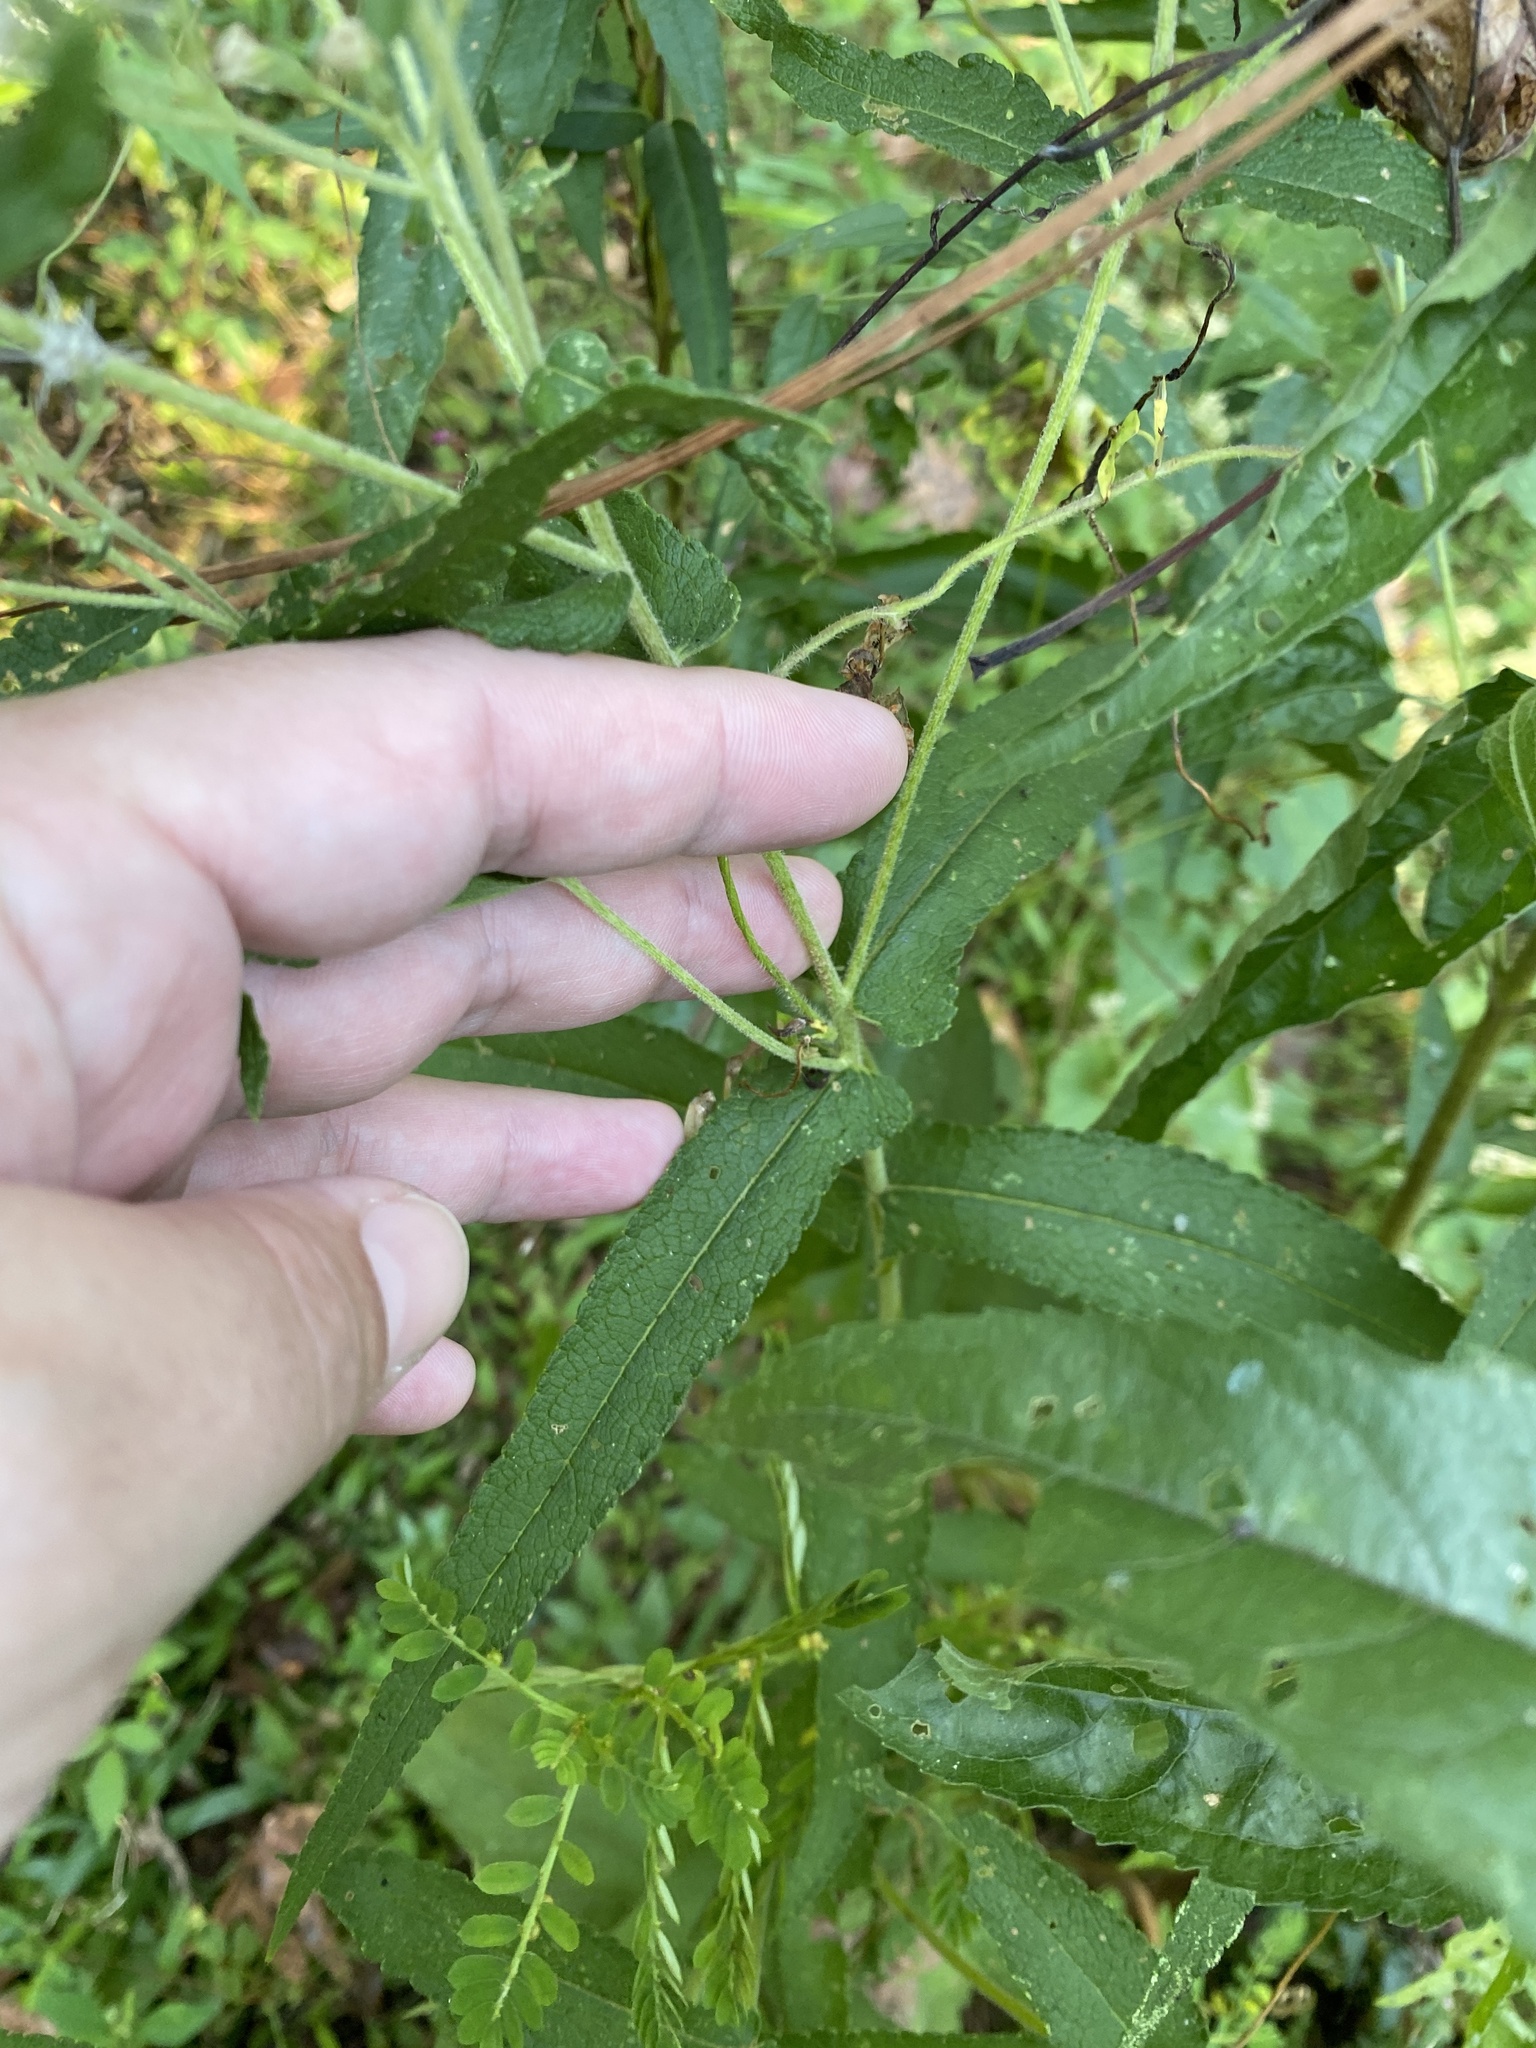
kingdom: Plantae
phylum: Tracheophyta
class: Magnoliopsida
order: Asterales
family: Asteraceae
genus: Eupatorium
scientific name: Eupatorium perfoliatum
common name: Boneset
